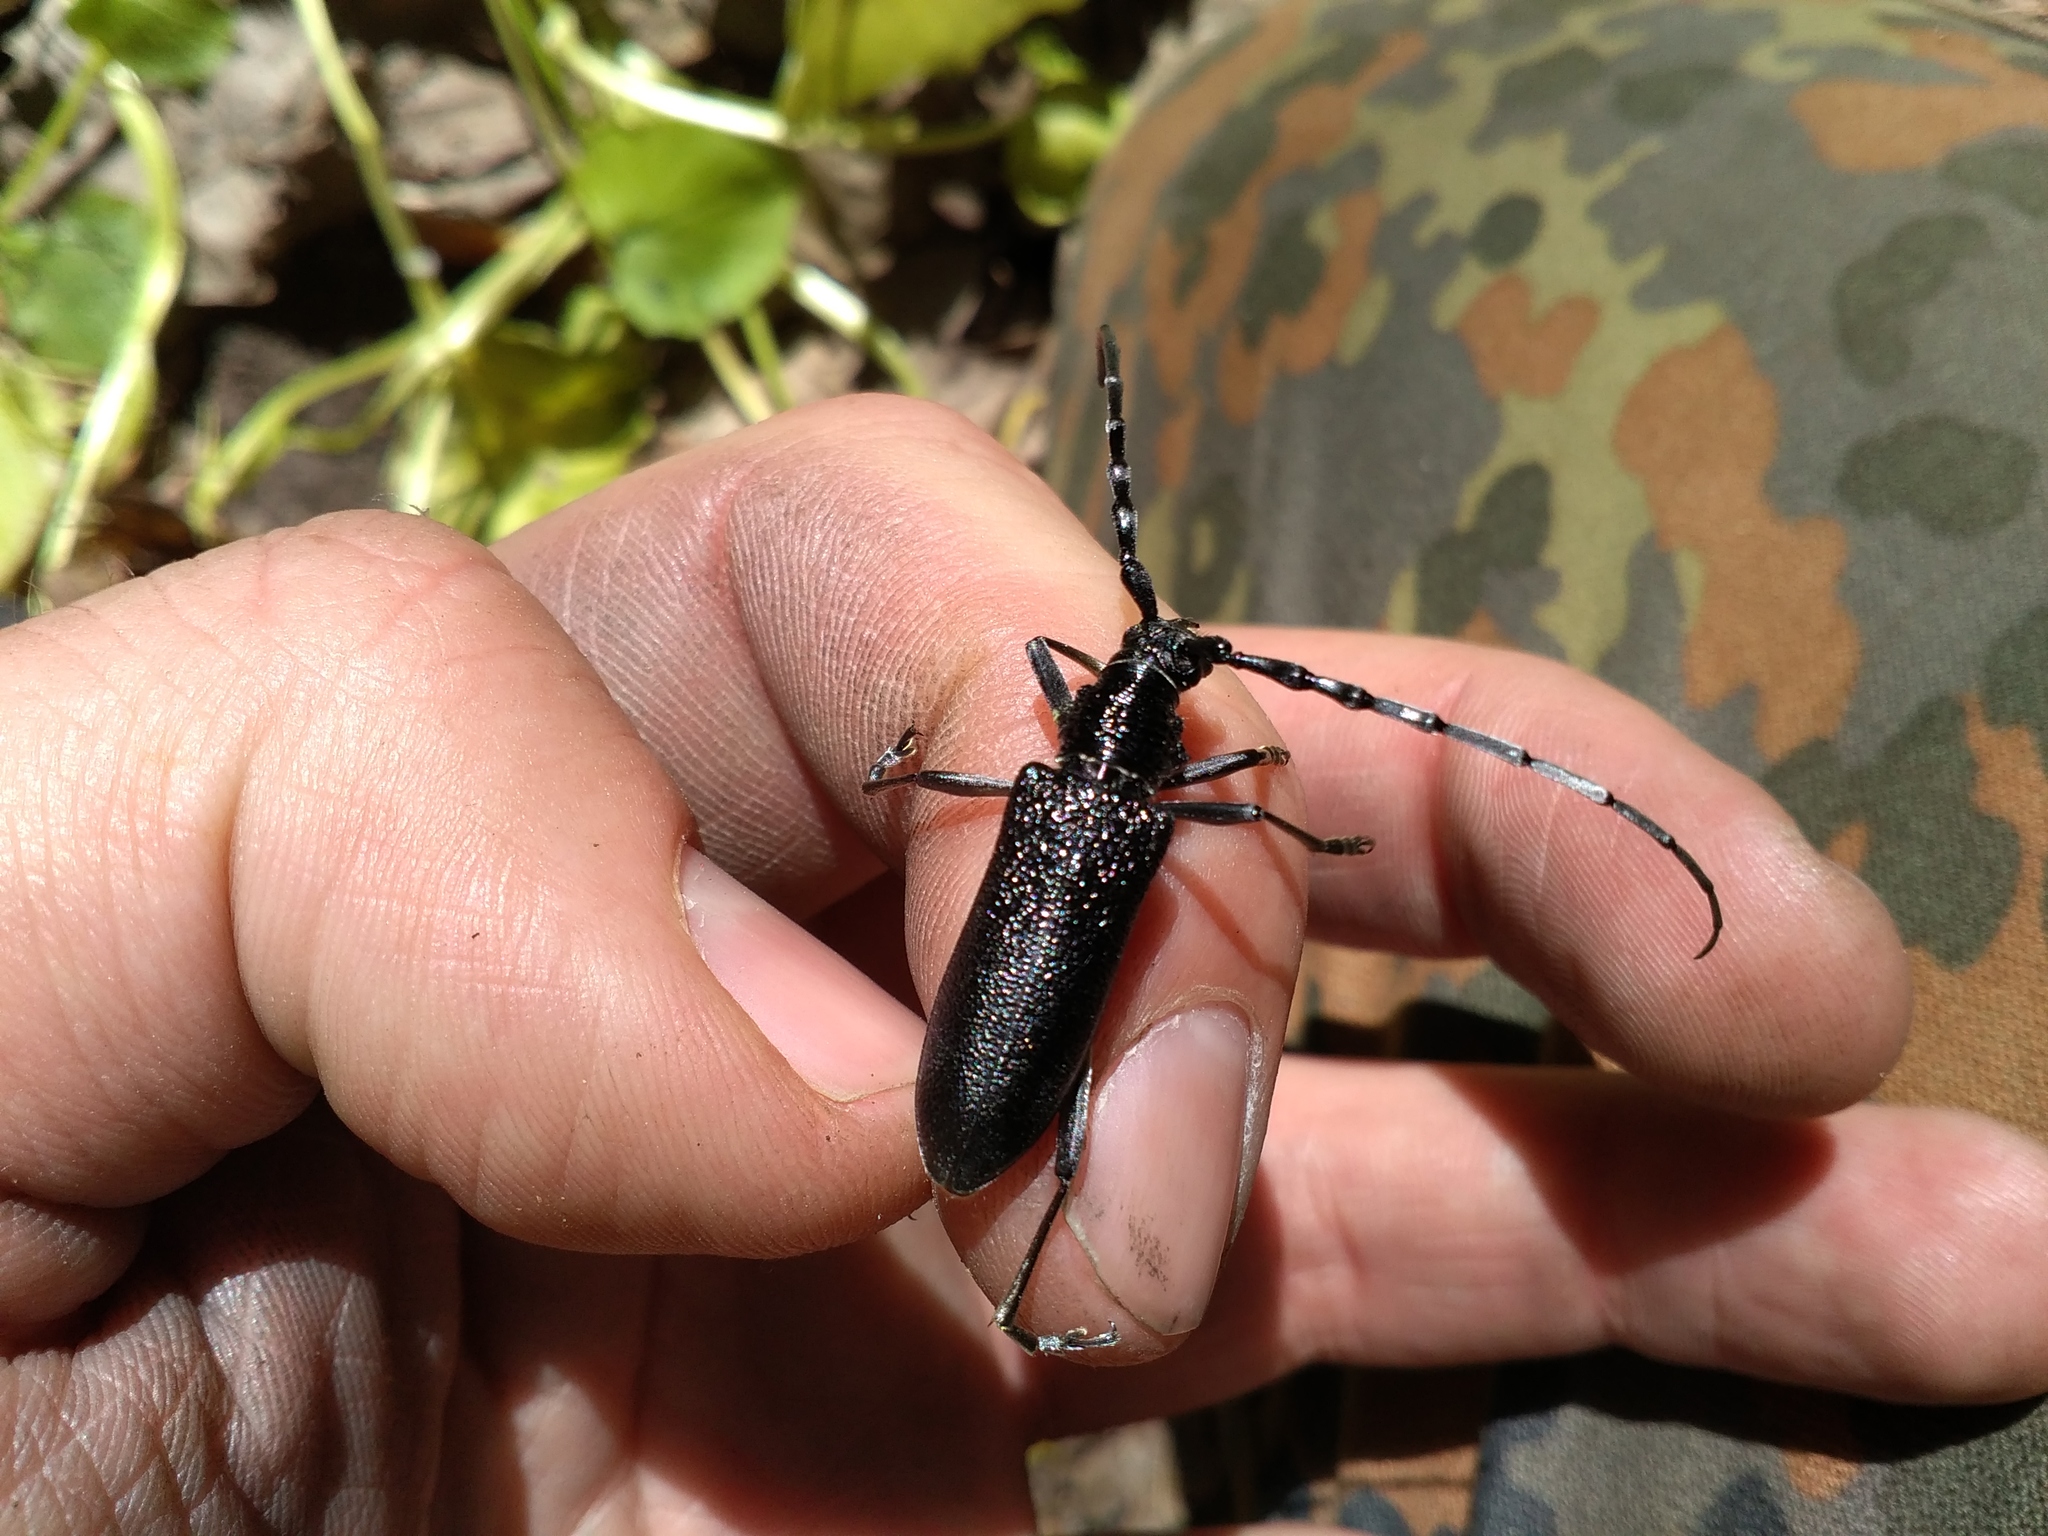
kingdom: Animalia
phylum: Arthropoda
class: Insecta
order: Coleoptera
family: Cerambycidae
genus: Cerambyx
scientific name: Cerambyx scopolii
